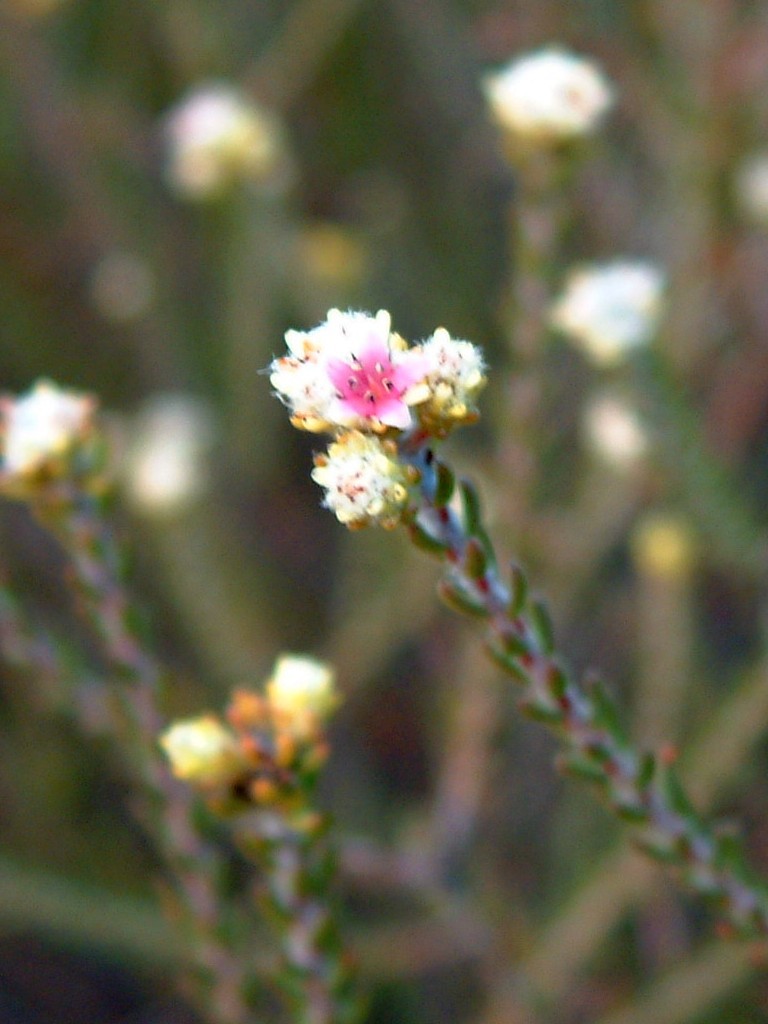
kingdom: Plantae
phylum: Tracheophyta
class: Magnoliopsida
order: Bruniales
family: Bruniaceae
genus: Staavia
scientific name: Staavia capitella
